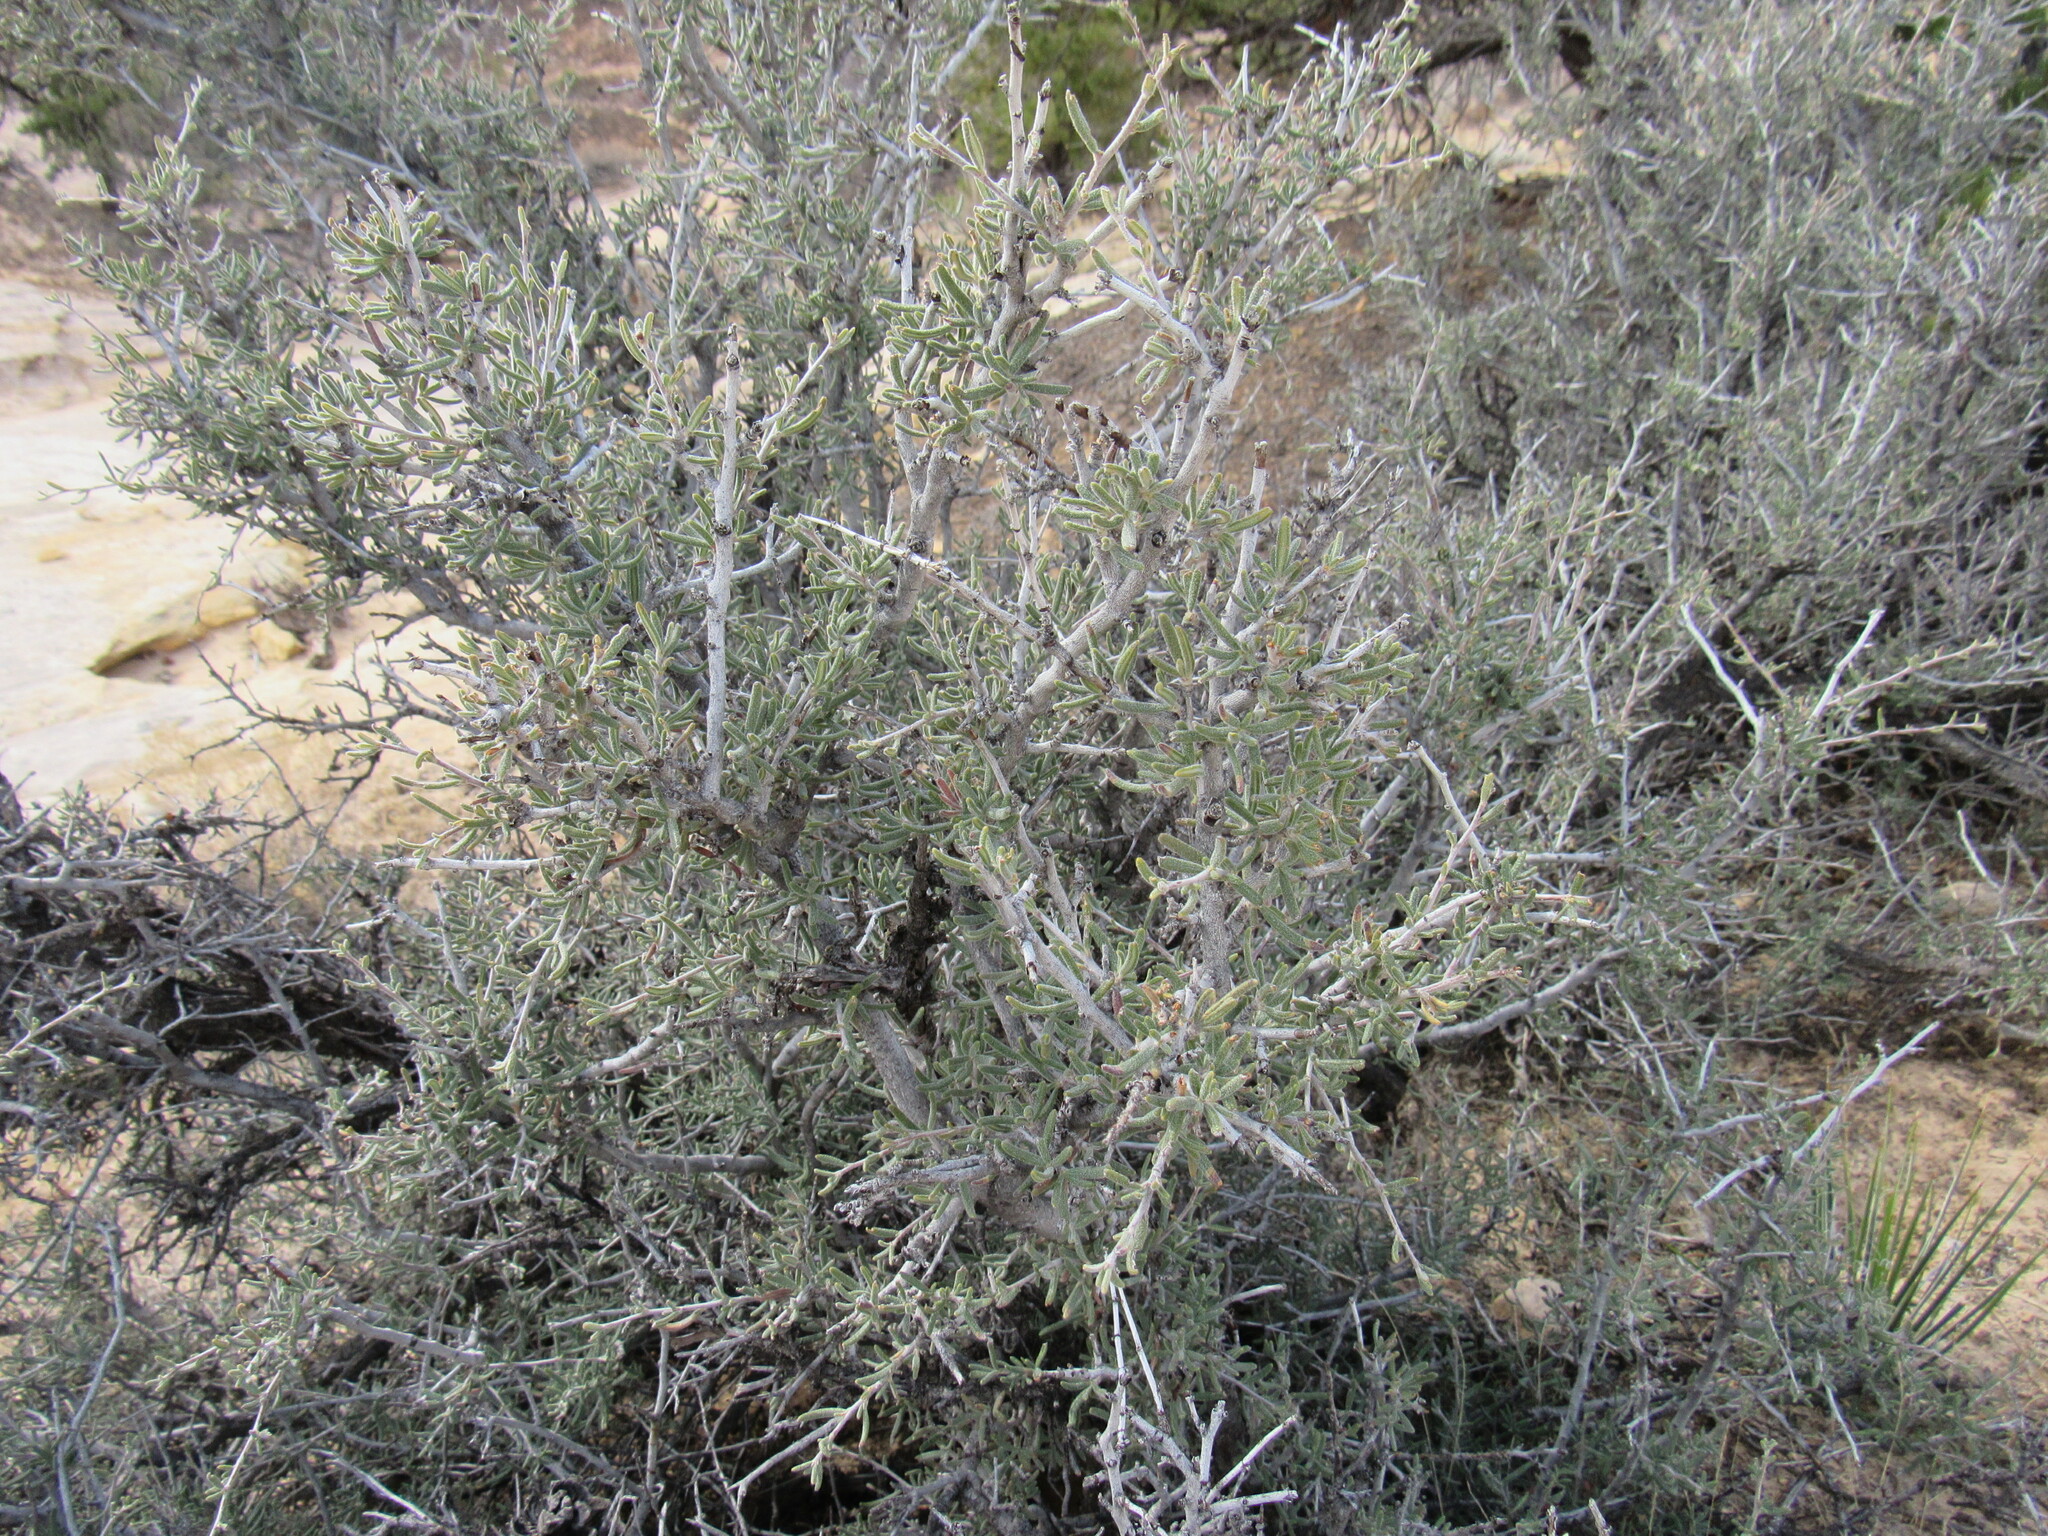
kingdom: Plantae
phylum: Tracheophyta
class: Magnoliopsida
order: Rosales
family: Rosaceae
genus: Cercocarpus
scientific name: Cercocarpus intricatus
